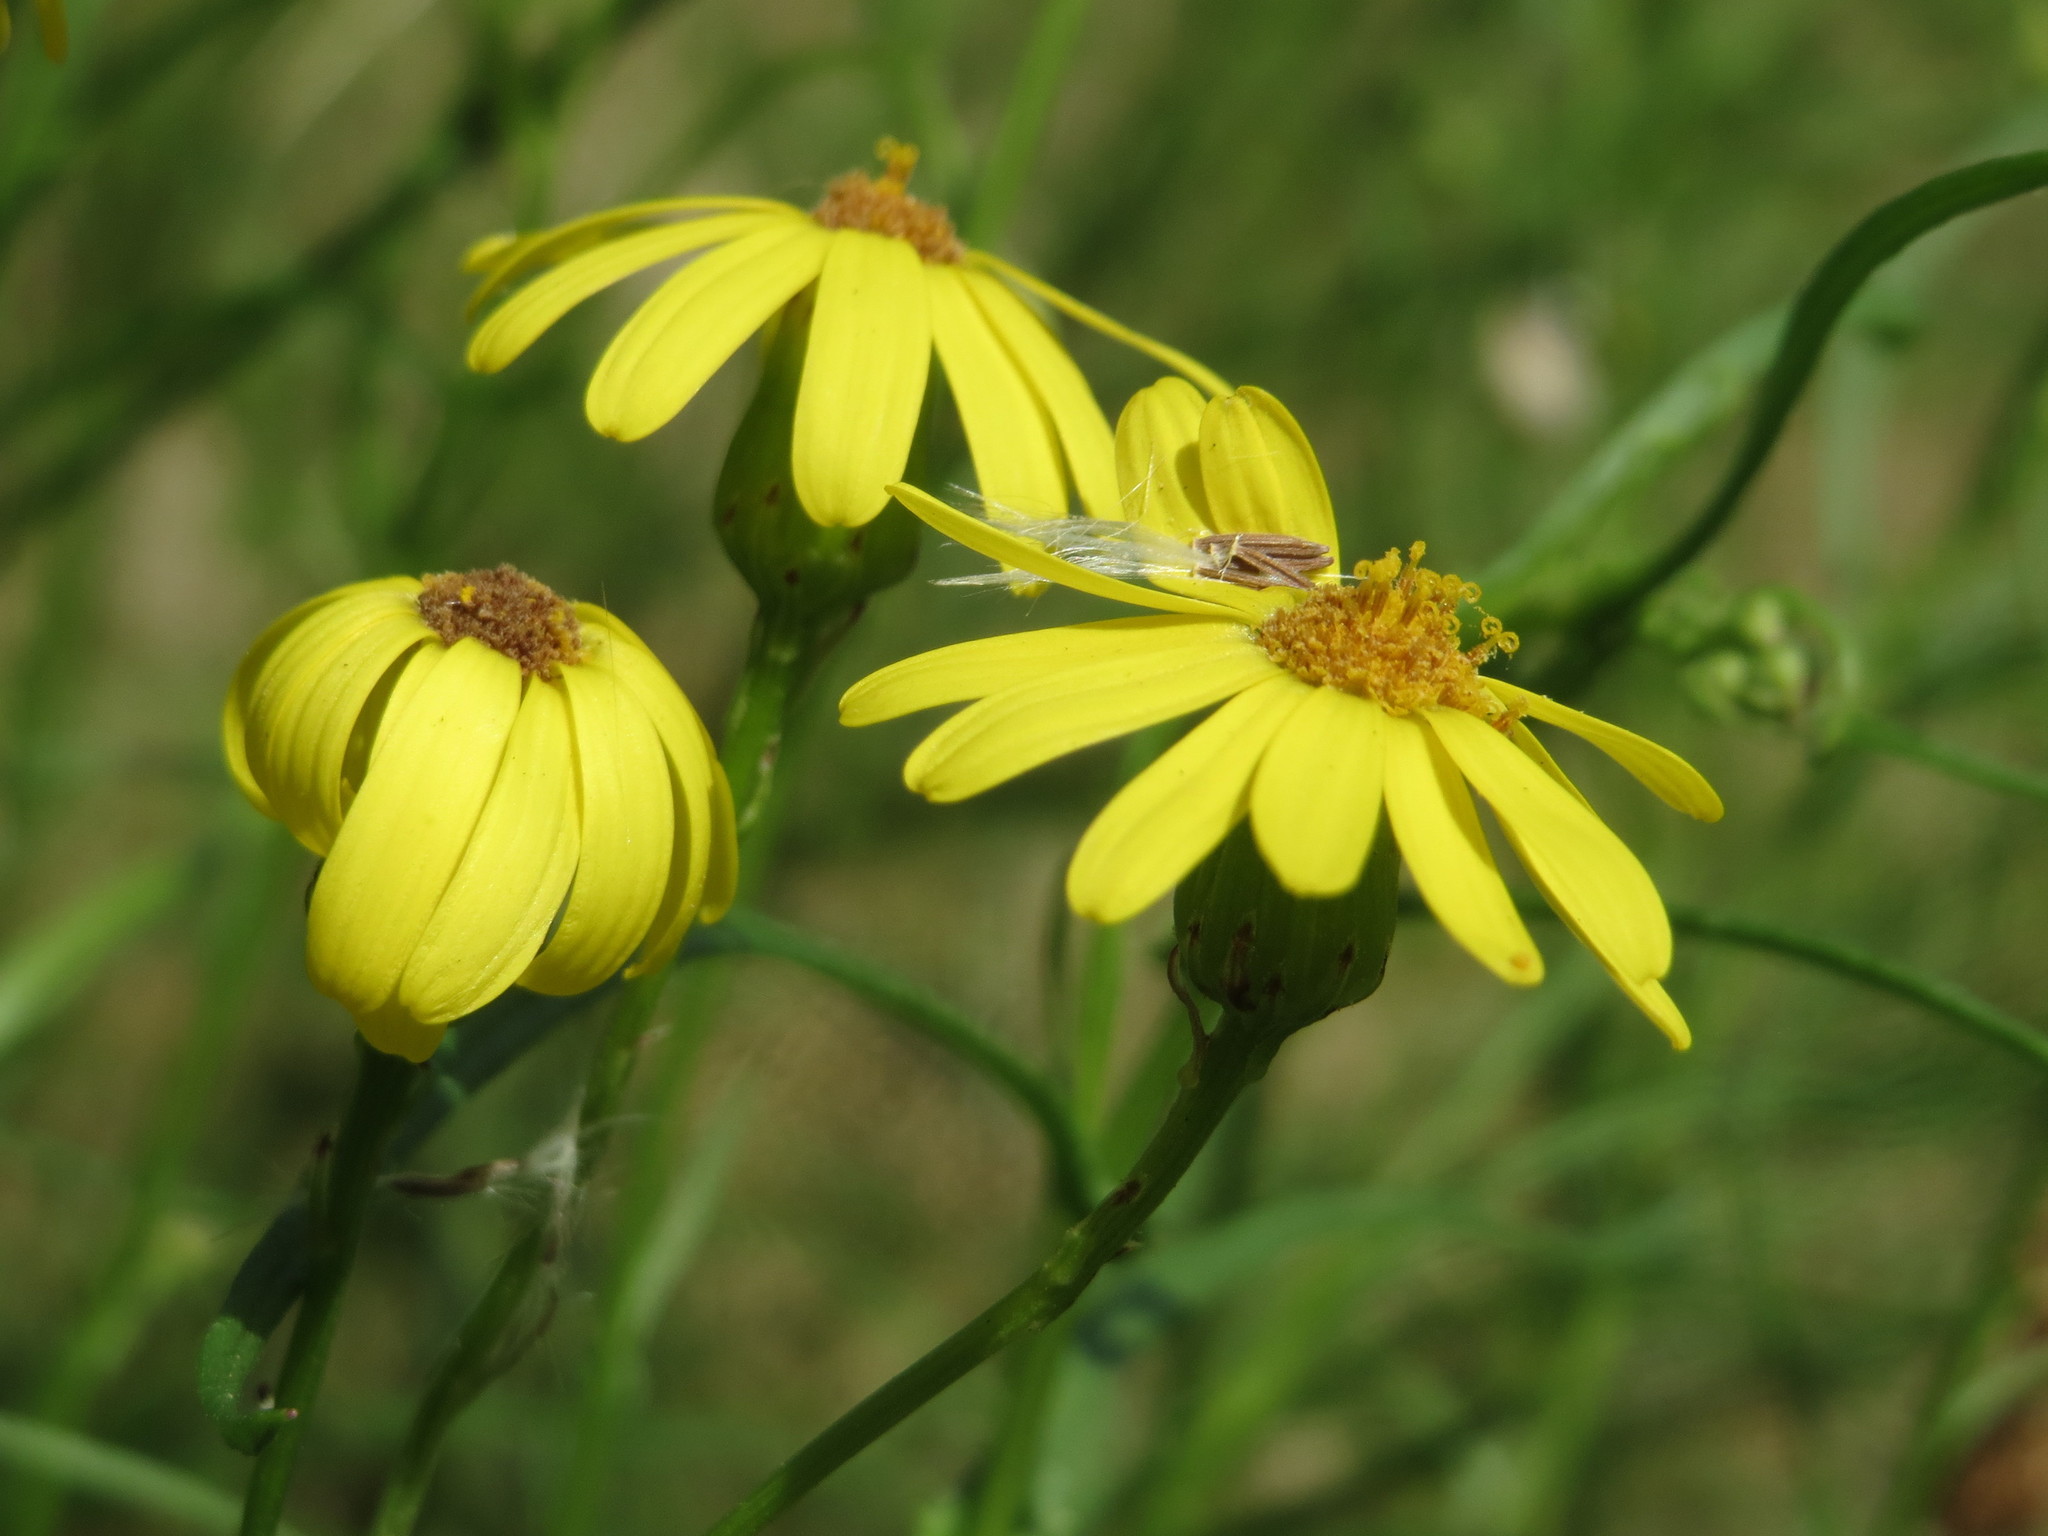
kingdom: Plantae
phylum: Tracheophyta
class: Magnoliopsida
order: Asterales
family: Asteraceae
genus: Senecio
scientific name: Senecio inaequidens
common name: Narrow-leaved ragwort
